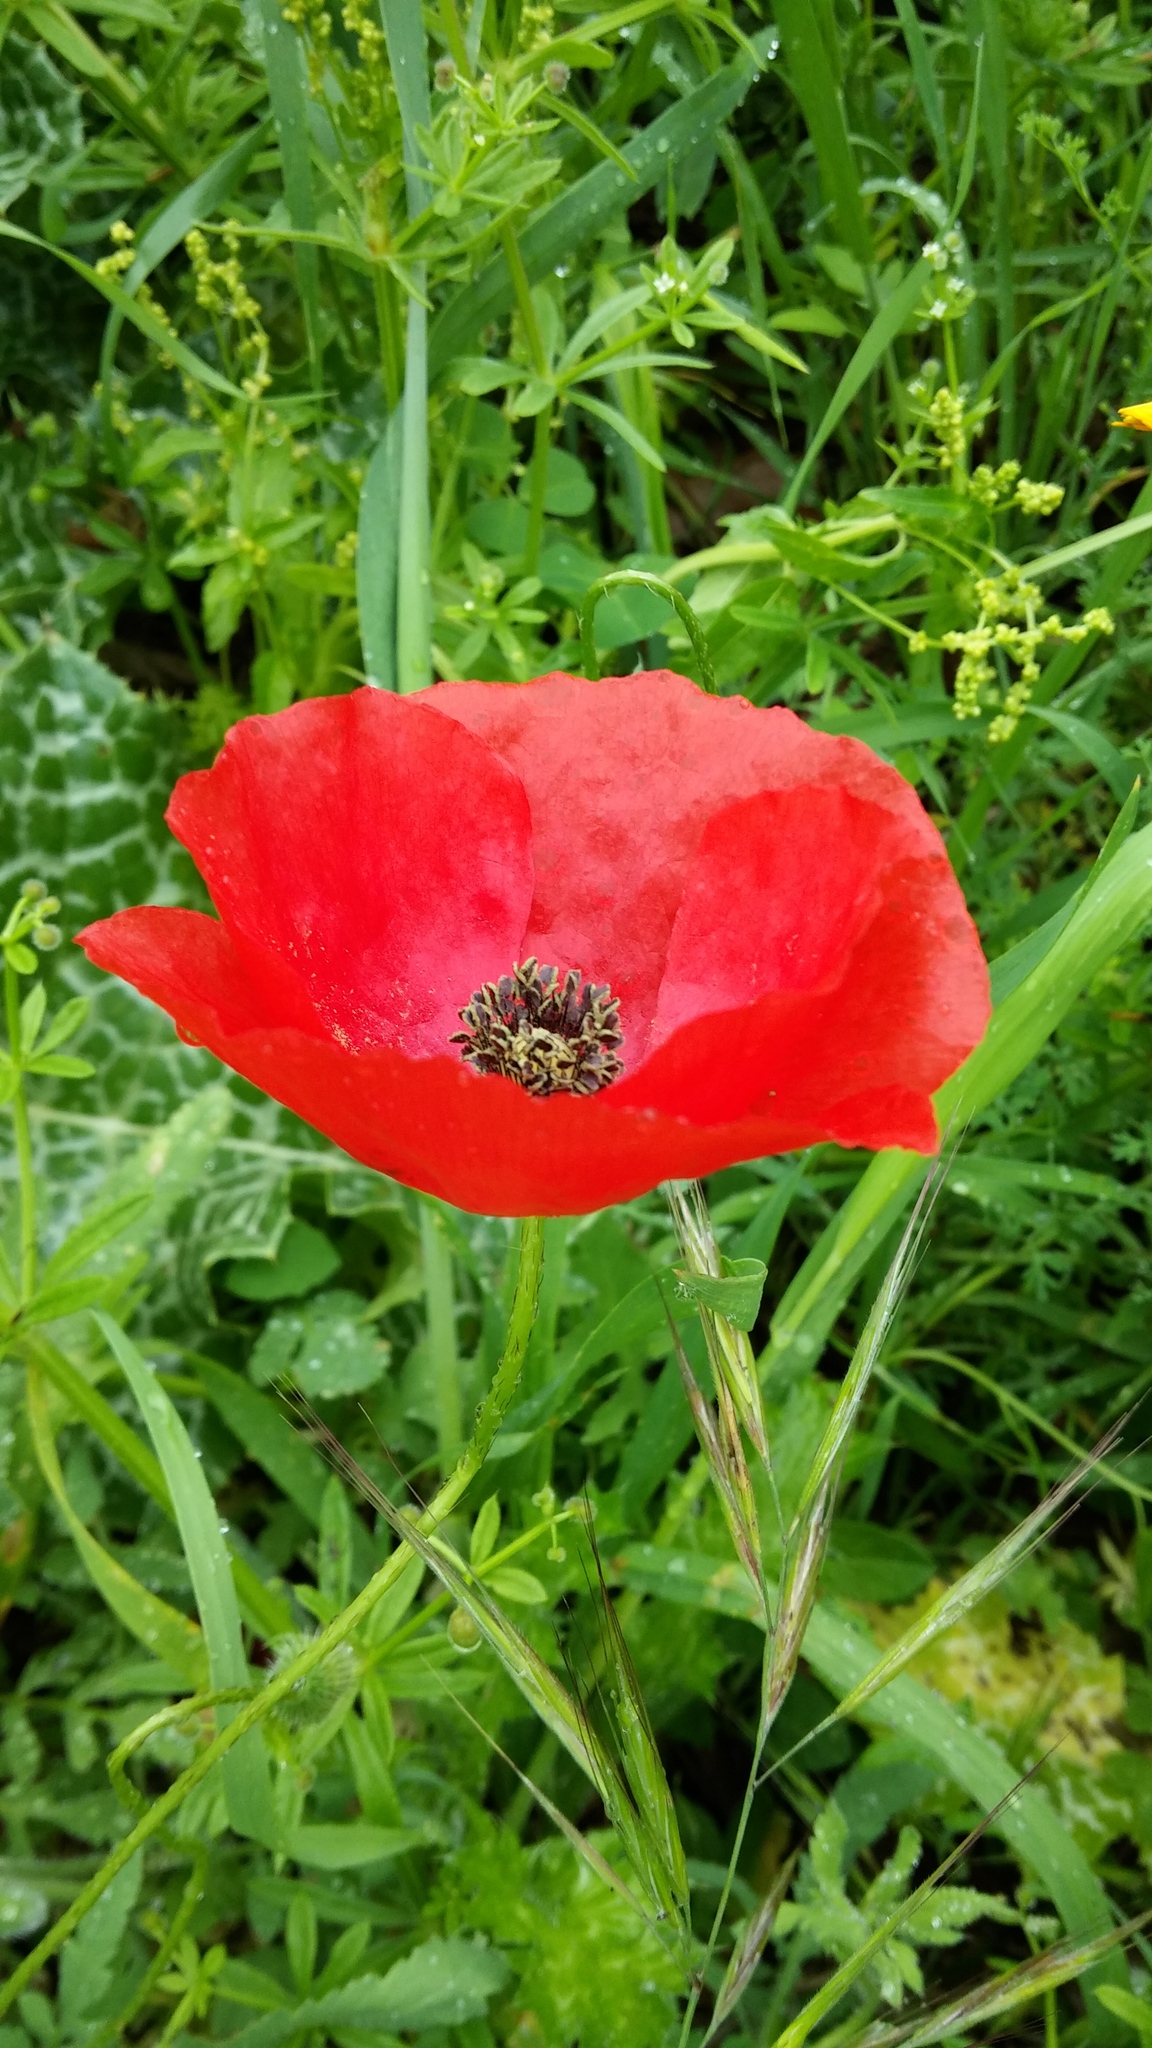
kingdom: Plantae
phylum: Tracheophyta
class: Magnoliopsida
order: Ranunculales
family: Papaveraceae
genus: Papaver
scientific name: Papaver rhoeas
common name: Corn poppy
